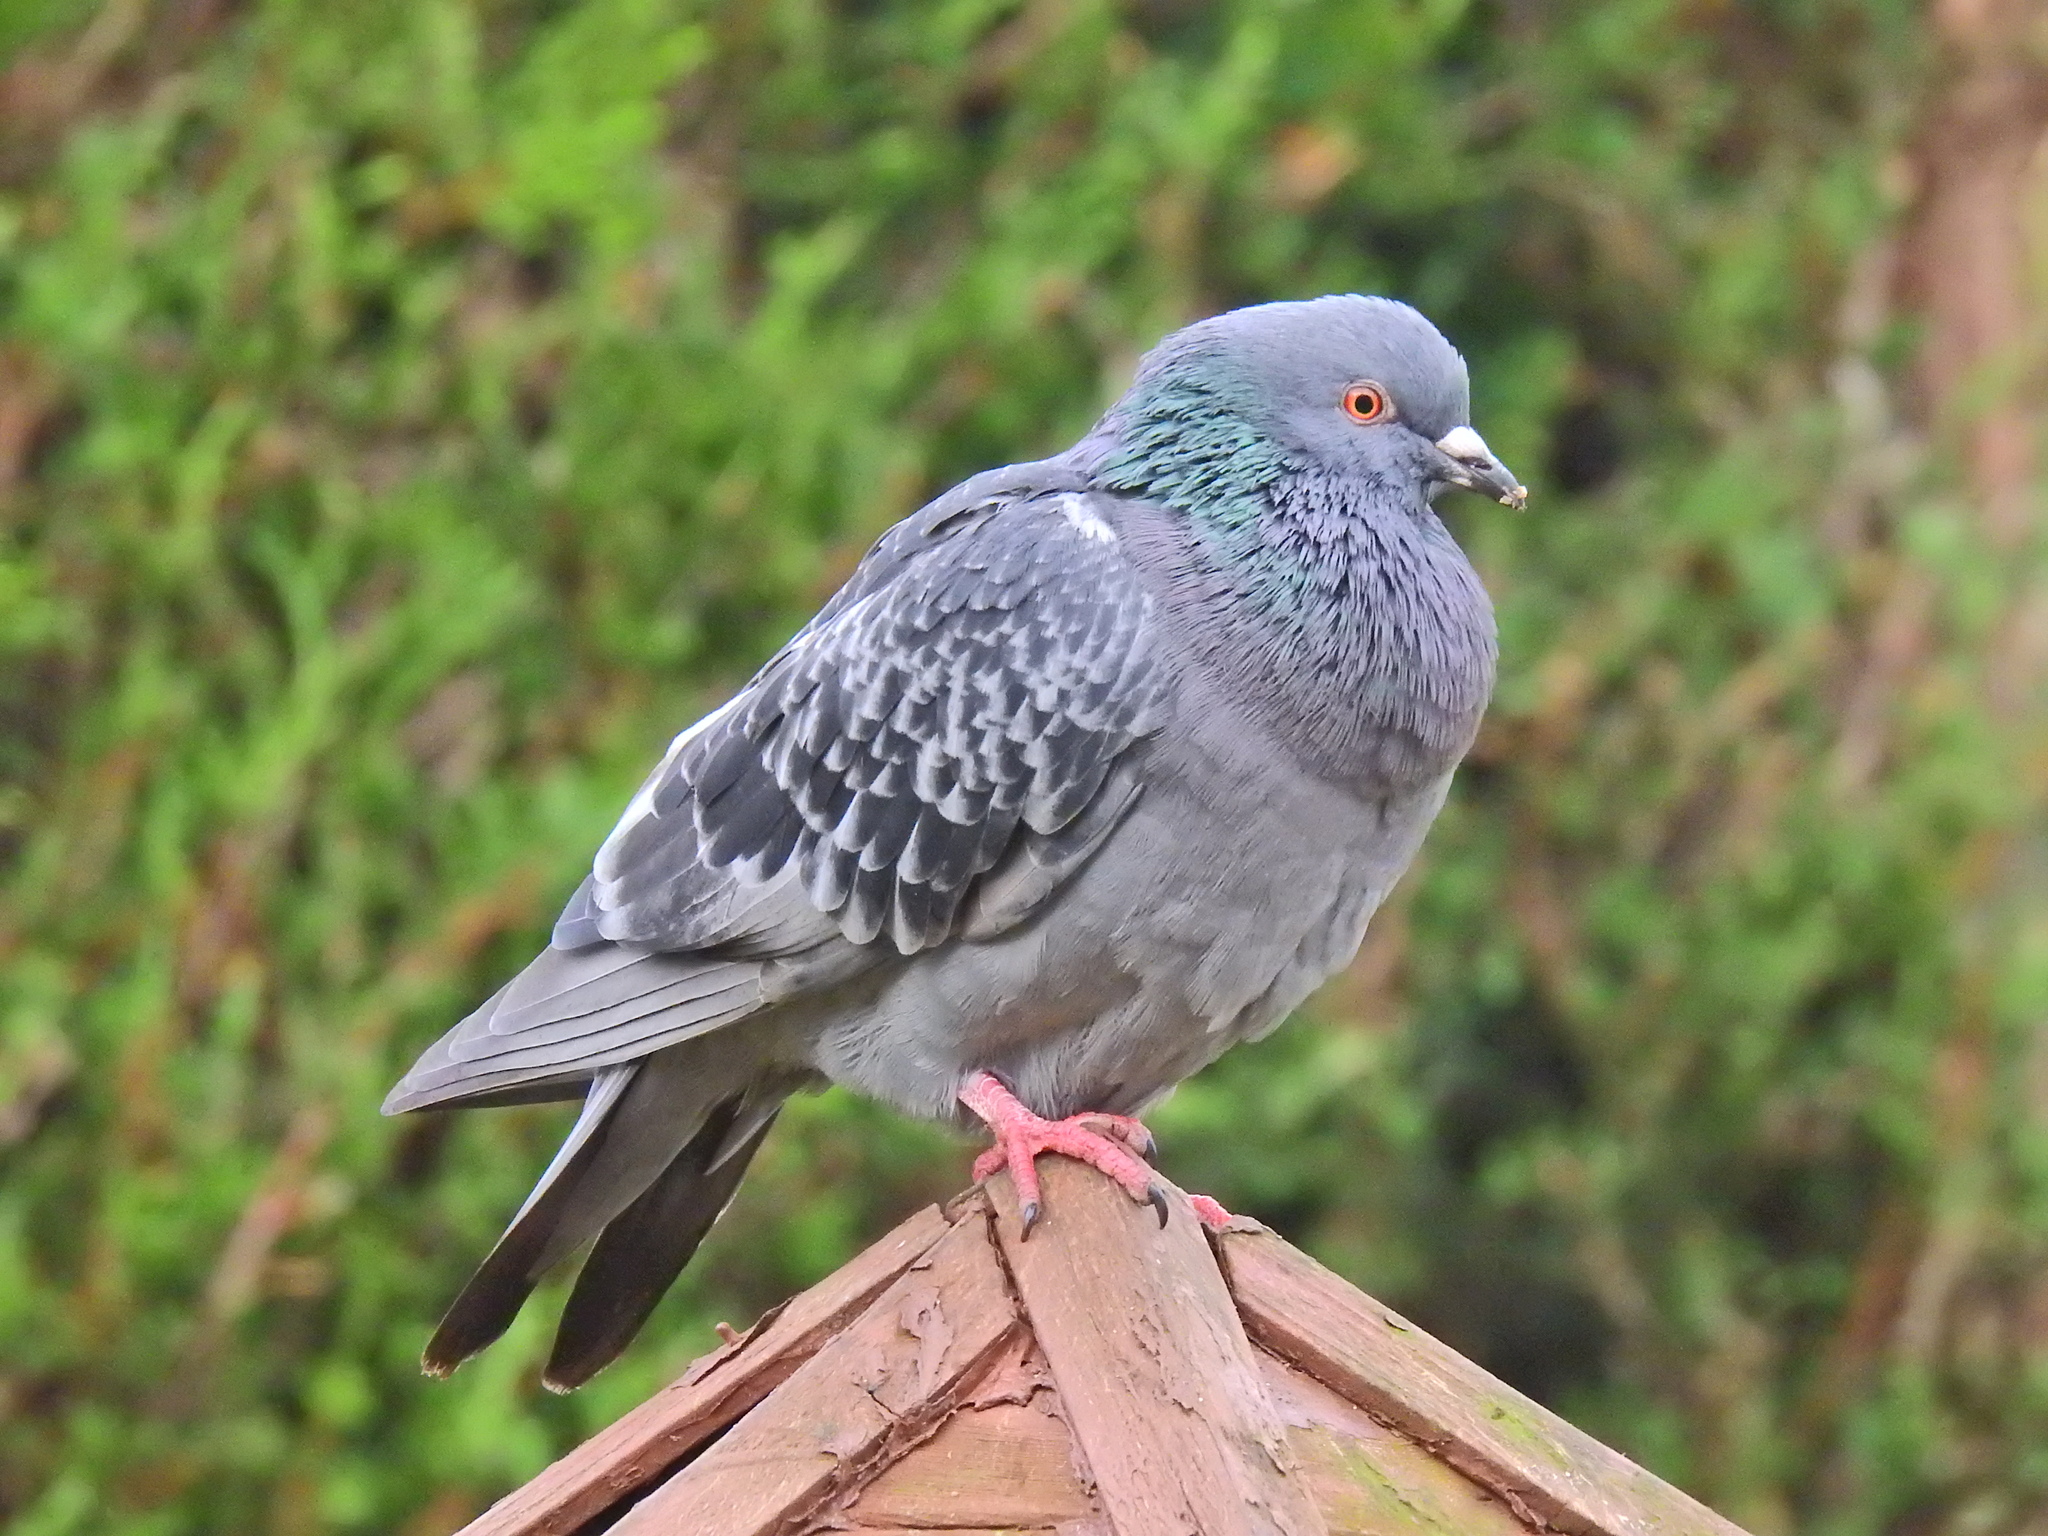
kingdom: Animalia
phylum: Chordata
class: Aves
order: Columbiformes
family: Columbidae
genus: Columba
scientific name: Columba livia
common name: Rock pigeon
